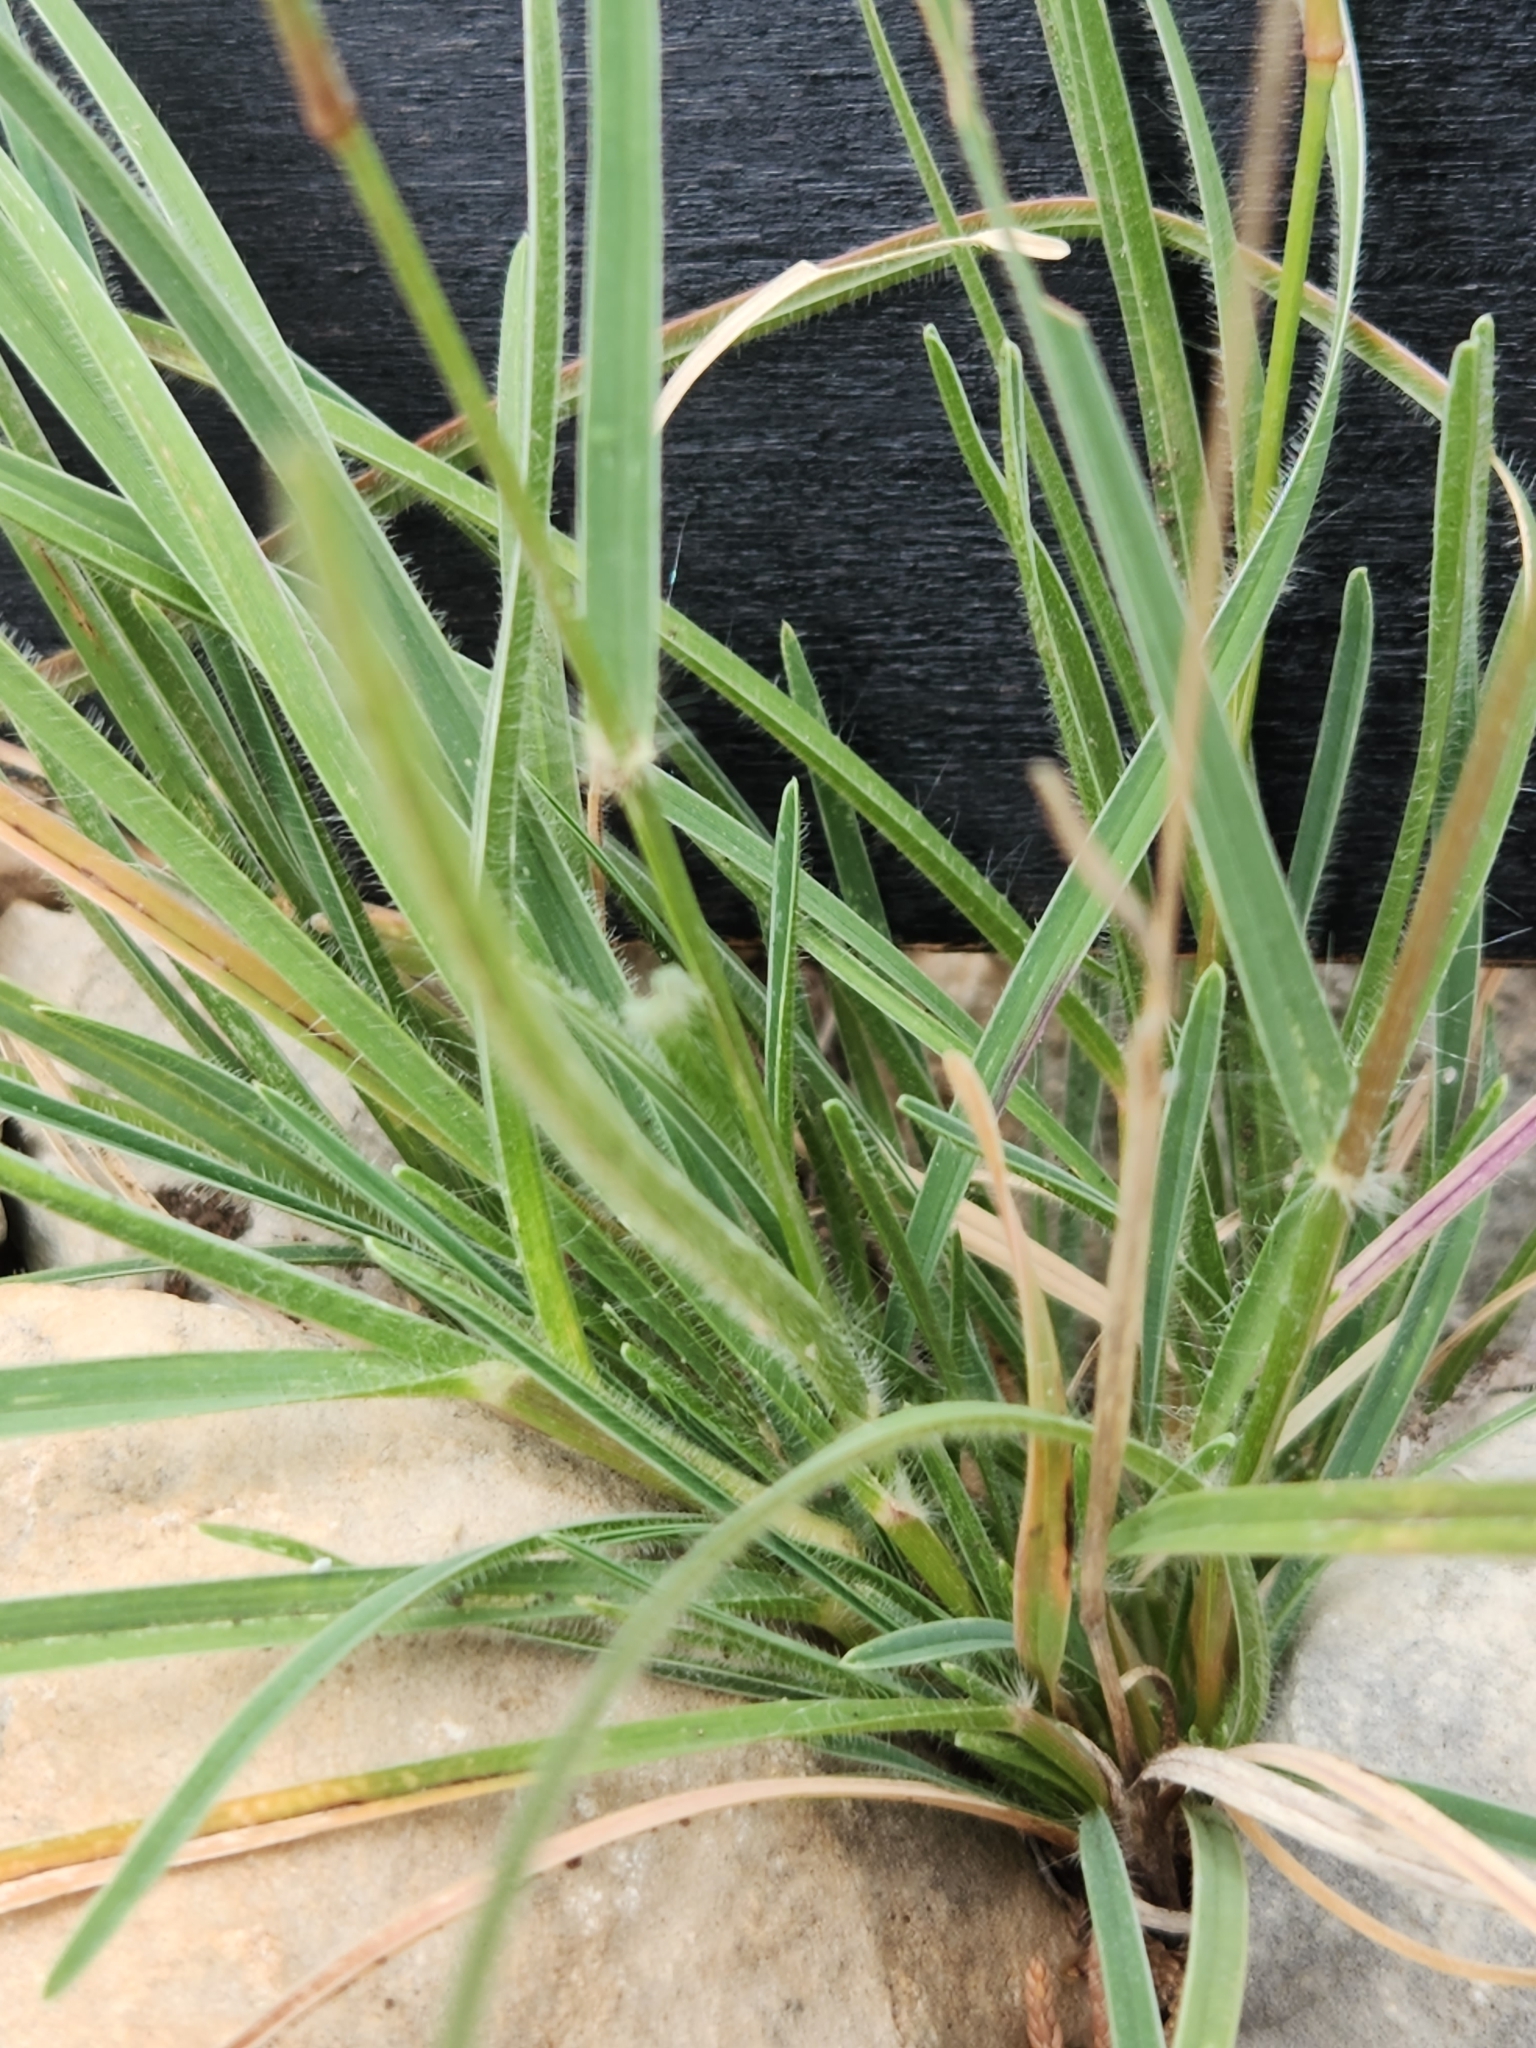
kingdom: Plantae
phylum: Tracheophyta
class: Liliopsida
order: Poales
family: Poaceae
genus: Erioneuron
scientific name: Erioneuron pilosum
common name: Hairy woolly grass
